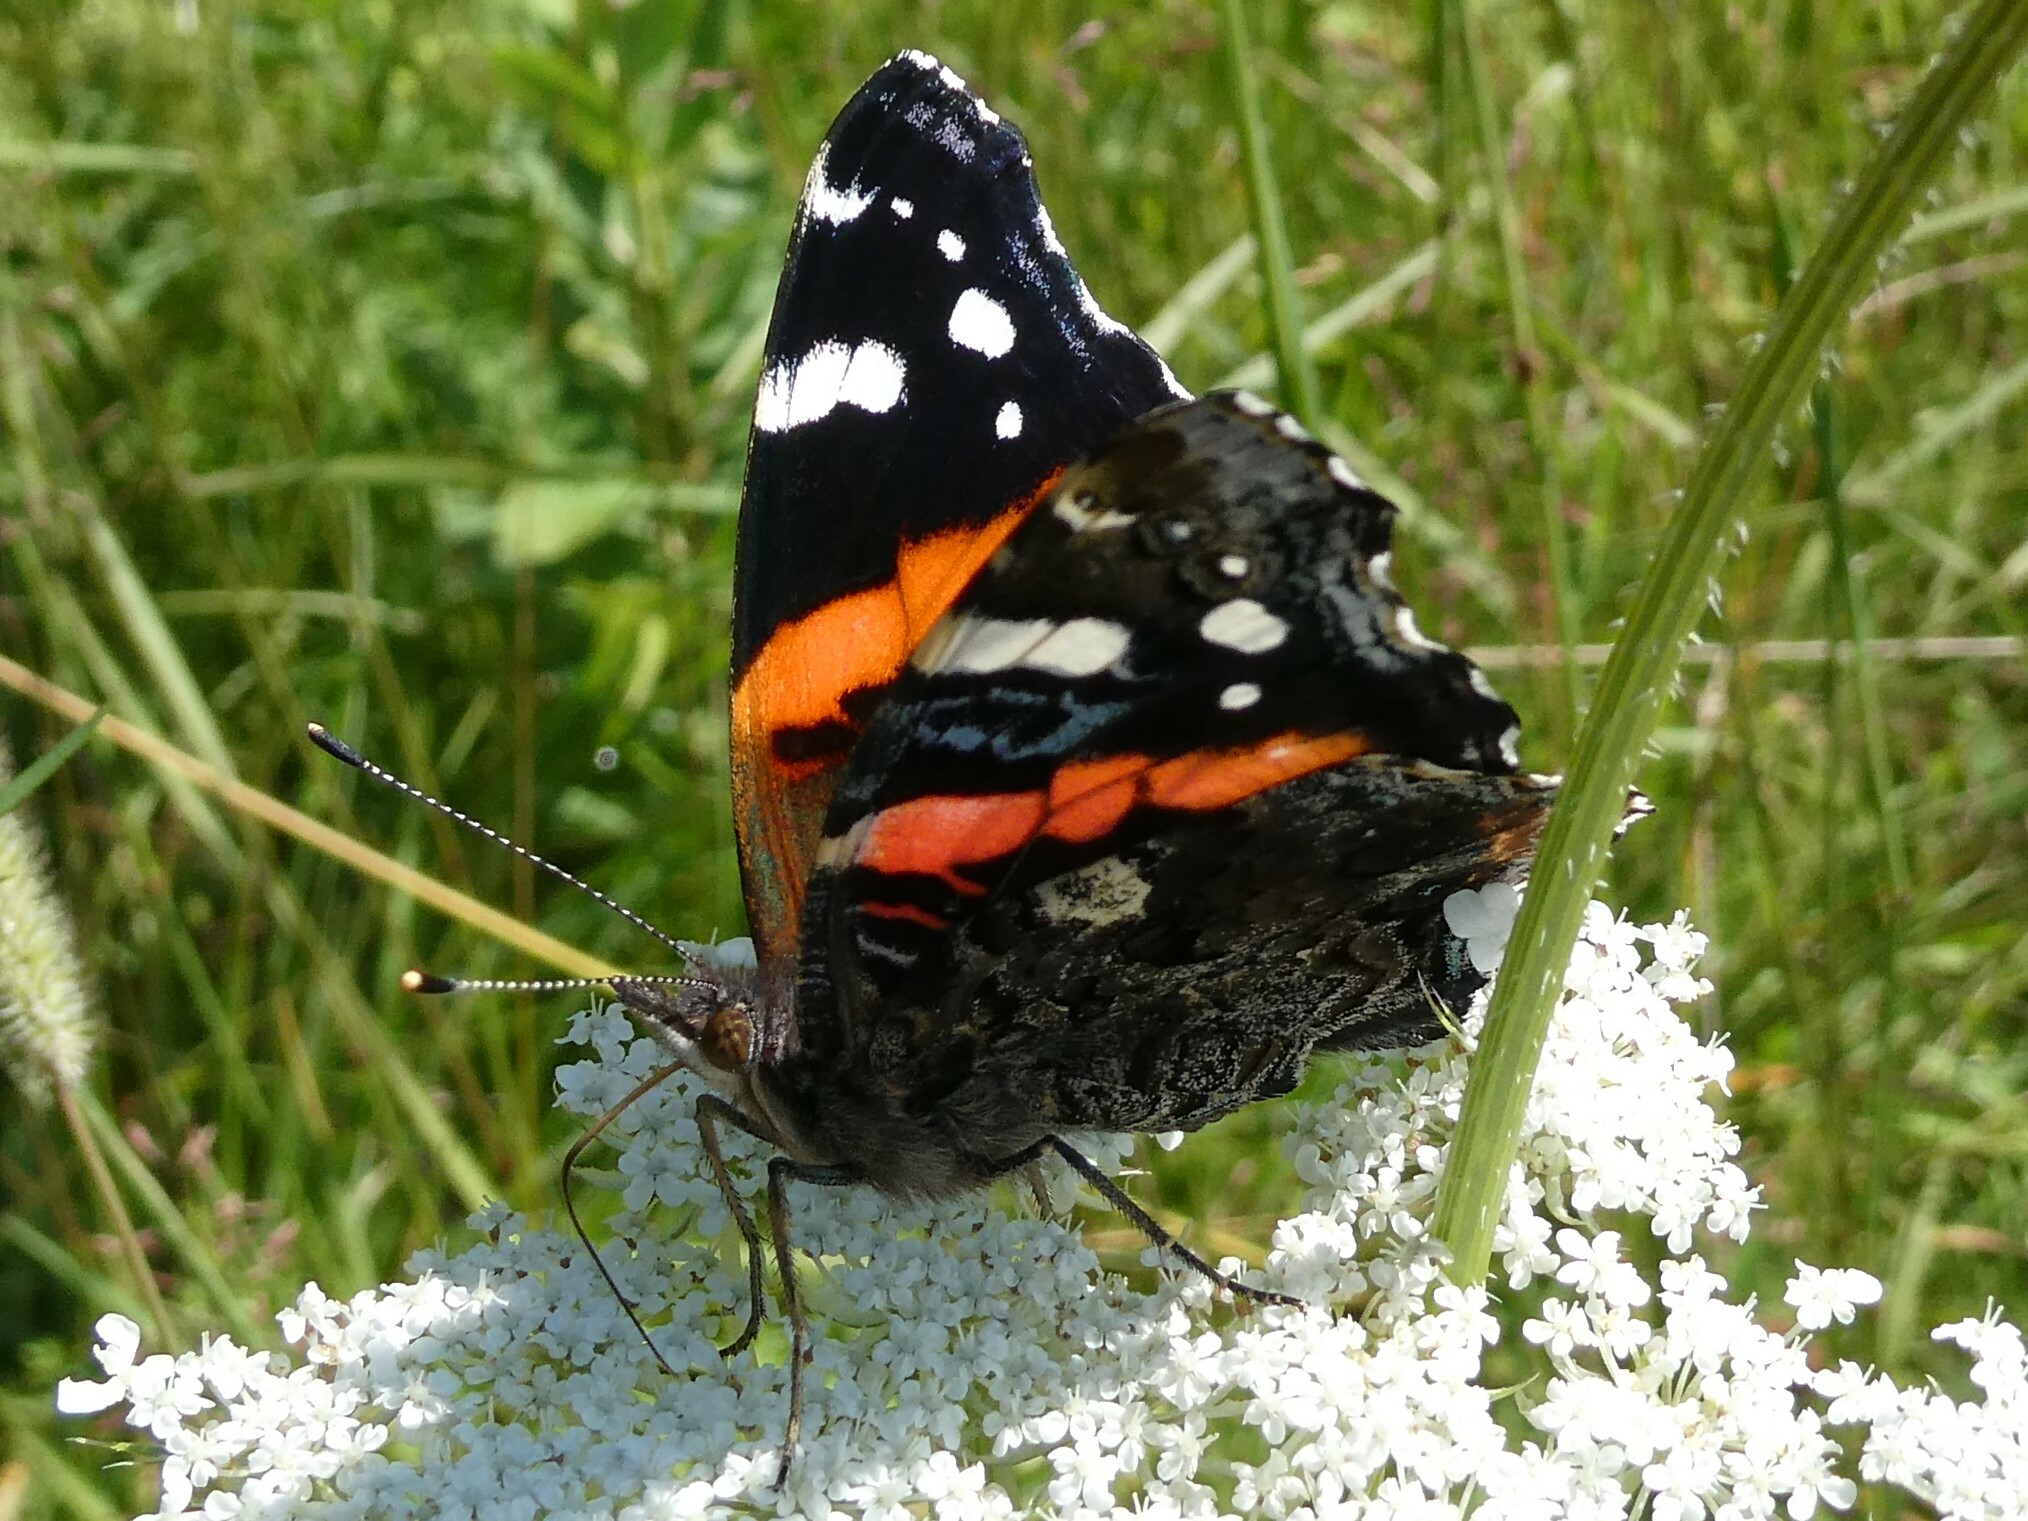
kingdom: Animalia
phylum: Arthropoda
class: Insecta
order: Lepidoptera
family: Nymphalidae
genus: Vanessa
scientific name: Vanessa atalanta
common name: Red admiral
